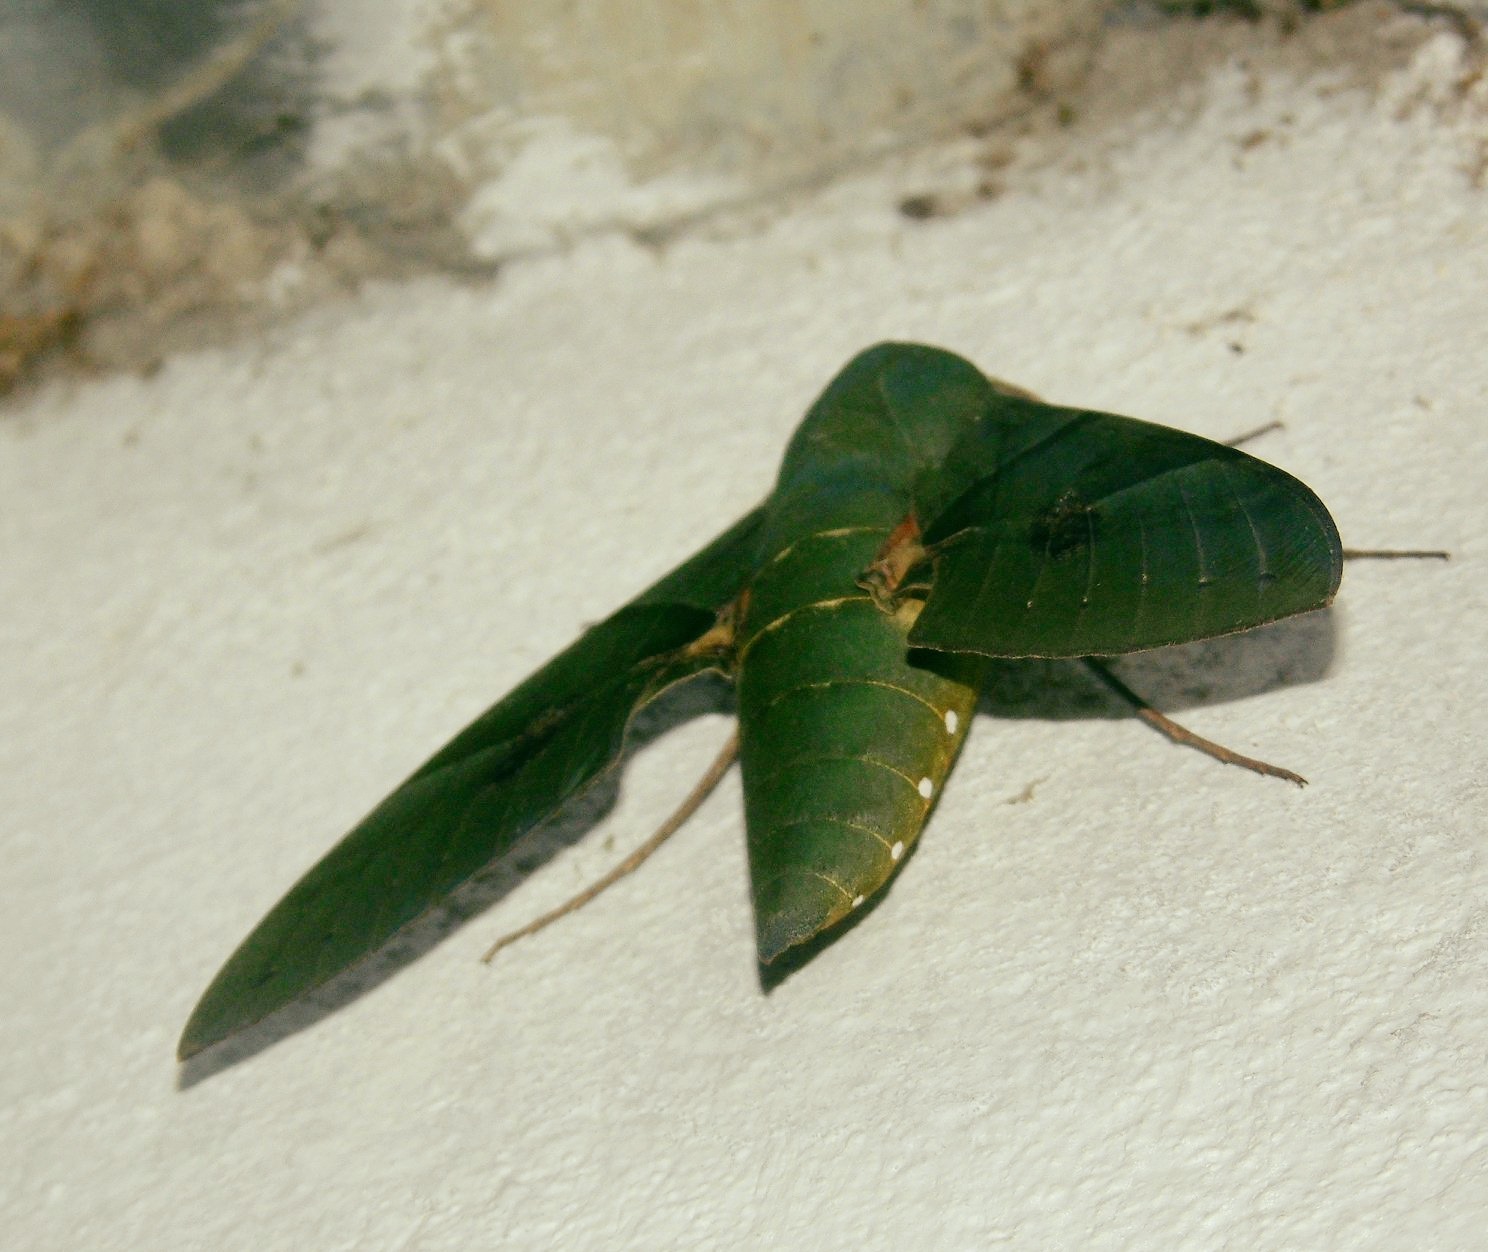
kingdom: Animalia
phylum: Arthropoda
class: Insecta
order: Lepidoptera
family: Sphingidae
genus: Eumorpha
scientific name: Eumorpha labruscae
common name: Gaudy sphinx
